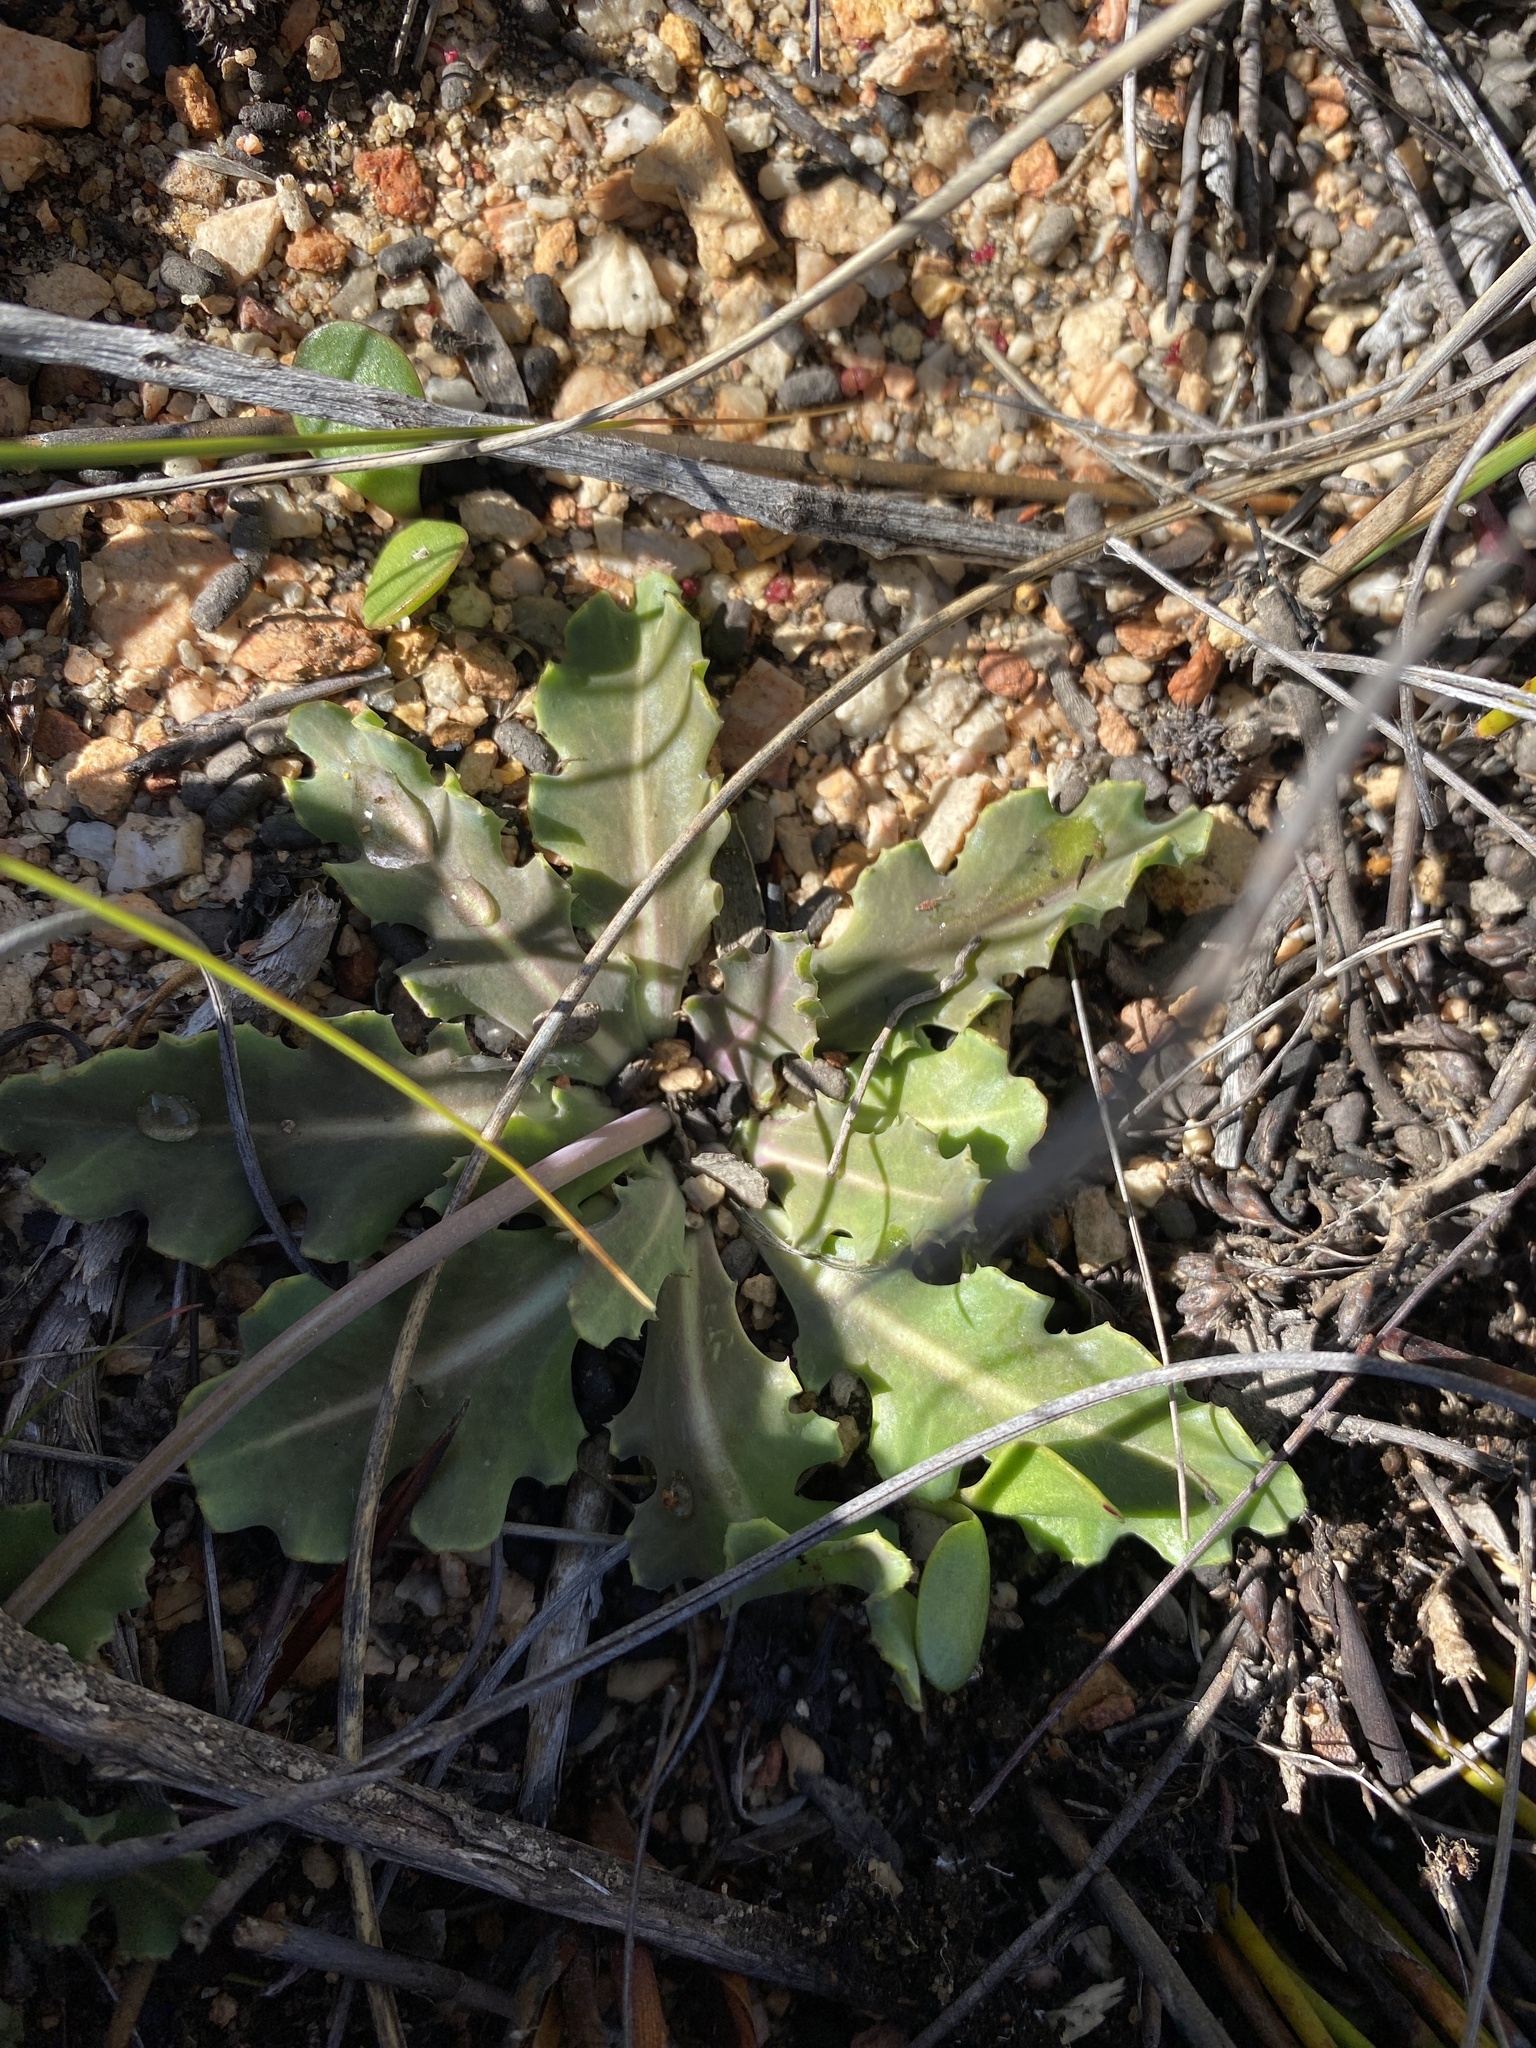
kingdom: Plantae
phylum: Tracheophyta
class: Magnoliopsida
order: Asterales
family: Asteraceae
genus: Othonna
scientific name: Othonna auriculifolia
